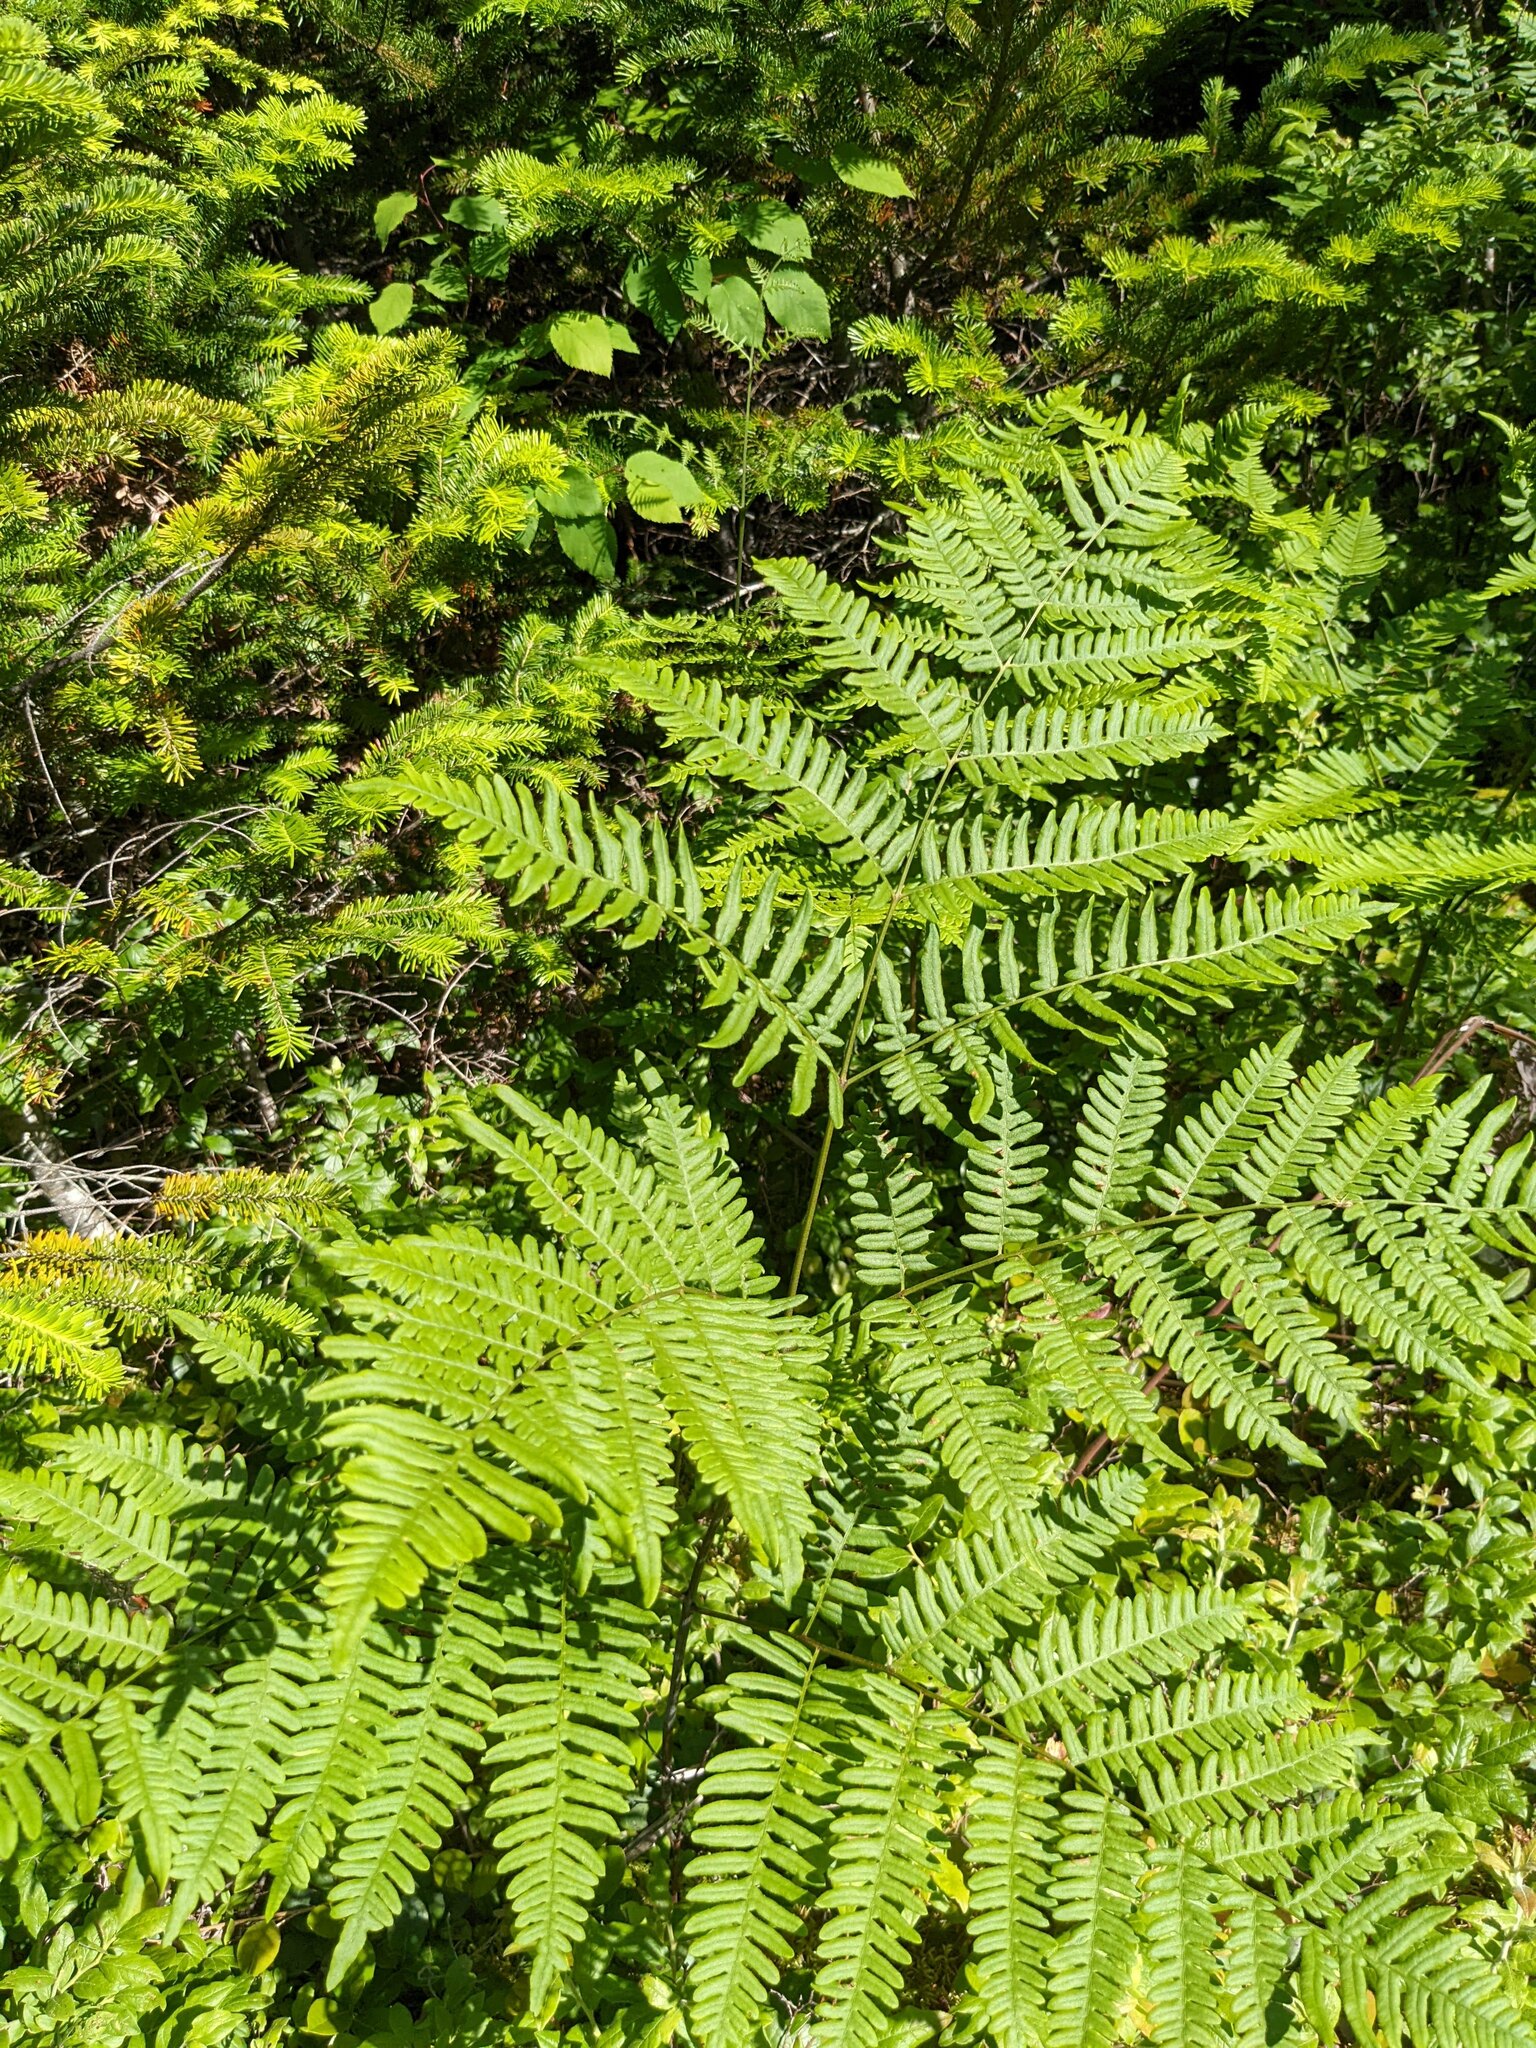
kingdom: Plantae
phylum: Tracheophyta
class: Polypodiopsida
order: Polypodiales
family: Dennstaedtiaceae
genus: Pteridium
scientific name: Pteridium aquilinum
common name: Bracken
